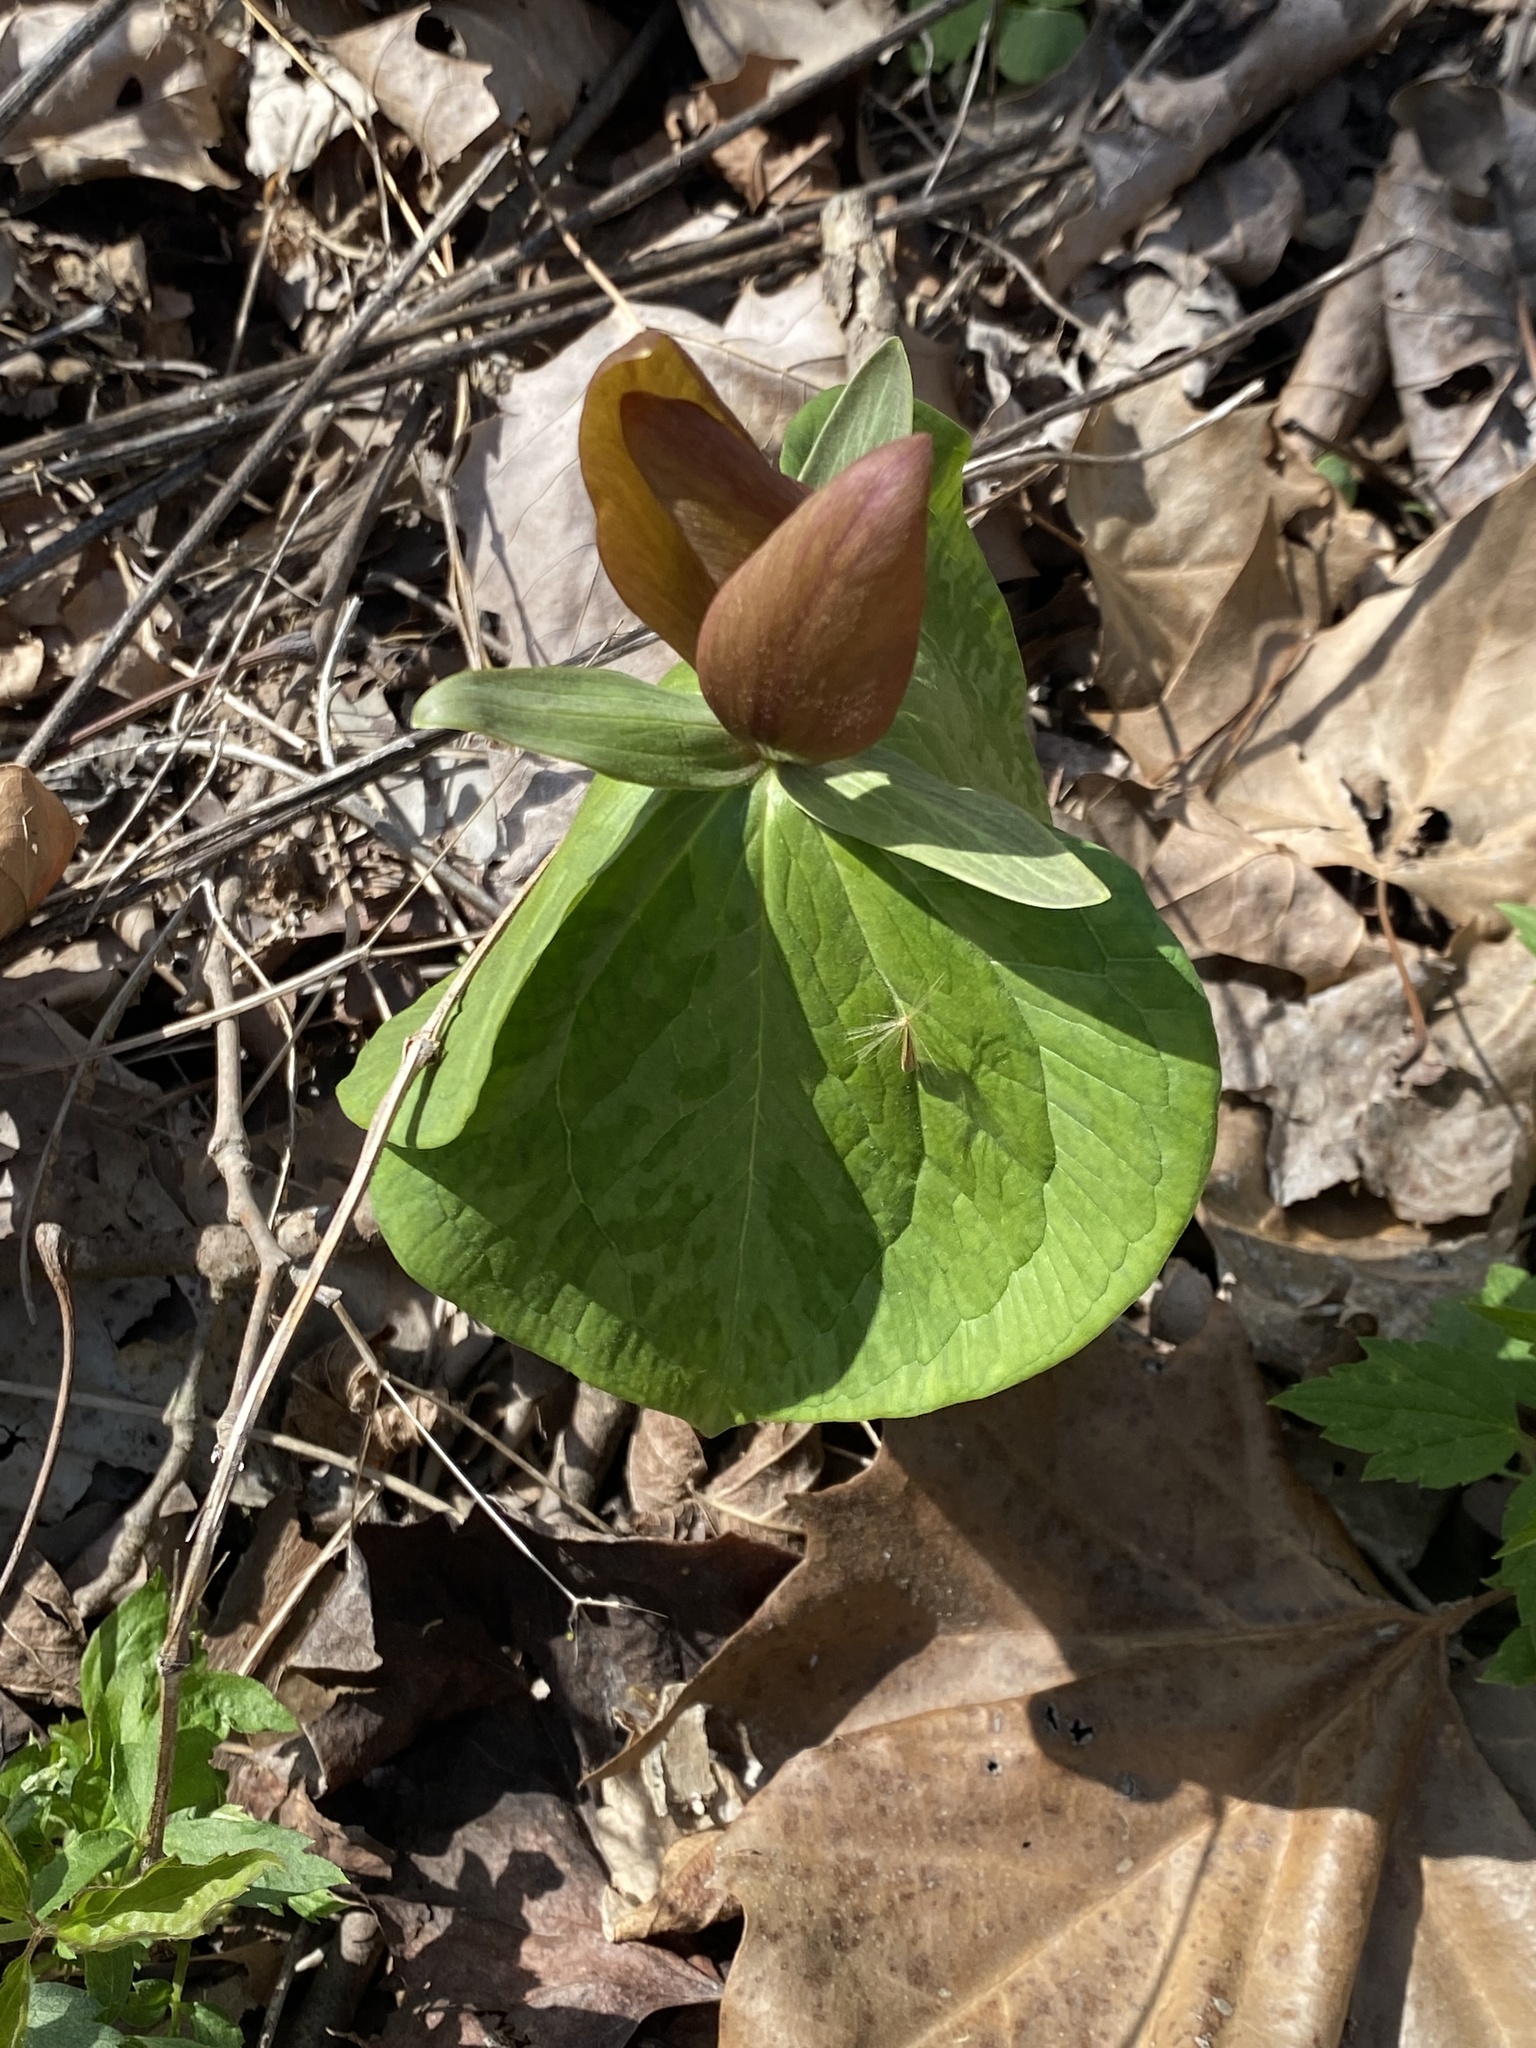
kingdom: Plantae
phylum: Tracheophyta
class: Liliopsida
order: Liliales
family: Melanthiaceae
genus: Trillium
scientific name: Trillium sessile
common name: Sessile trillium
